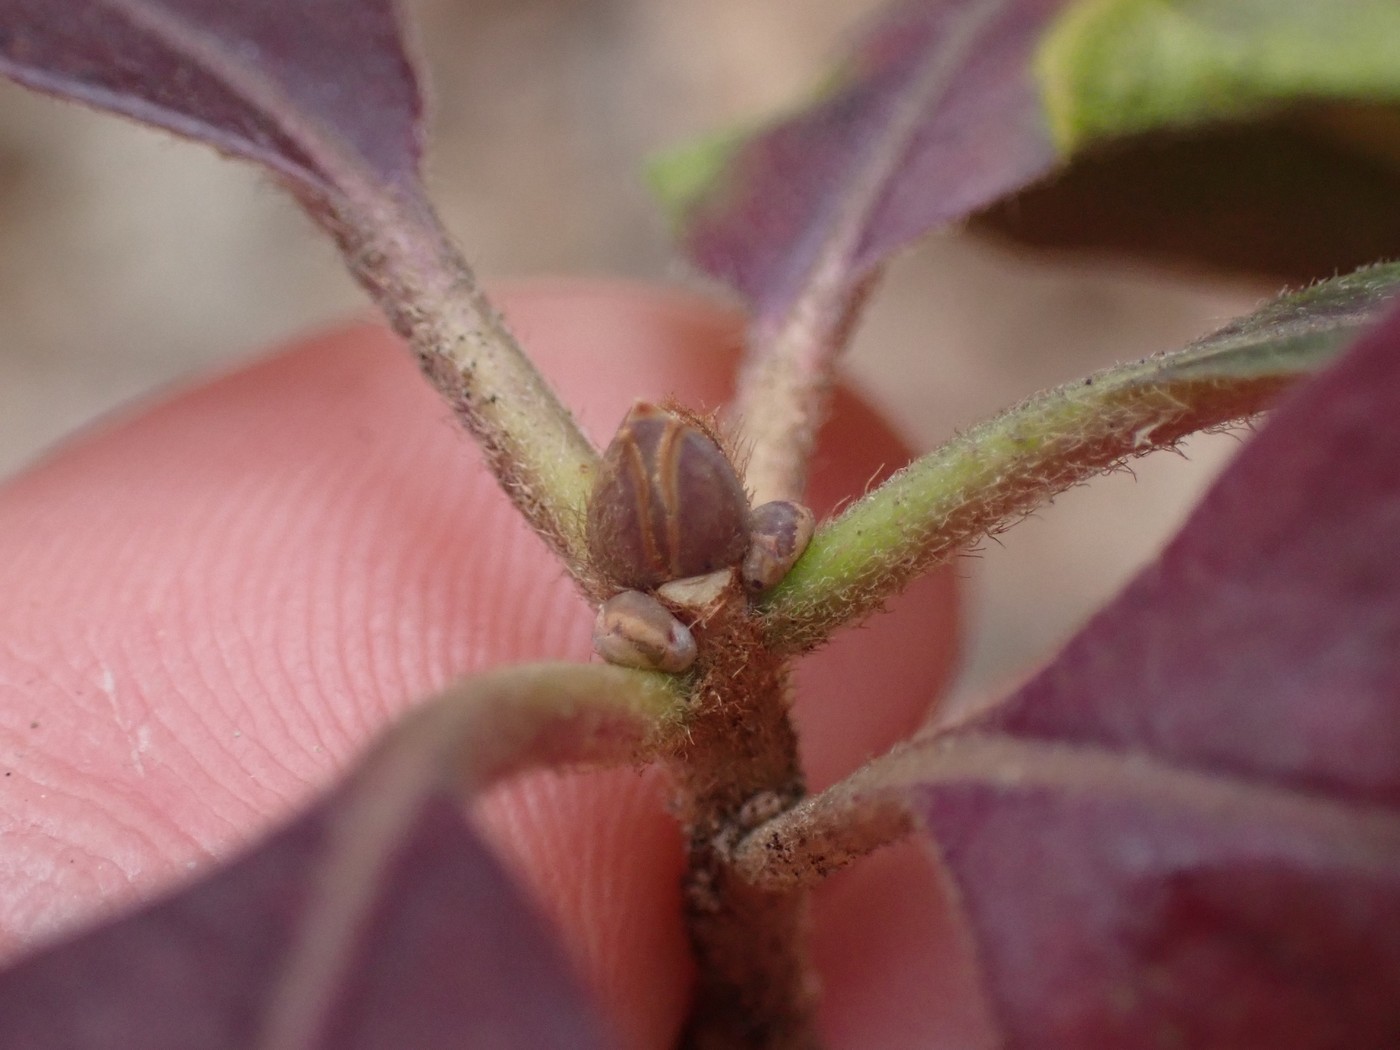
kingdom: Plantae
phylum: Tracheophyta
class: Magnoliopsida
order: Ericales
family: Symplocaceae
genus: Symplocos
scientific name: Symplocos tinctoria
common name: Horse-sugar
